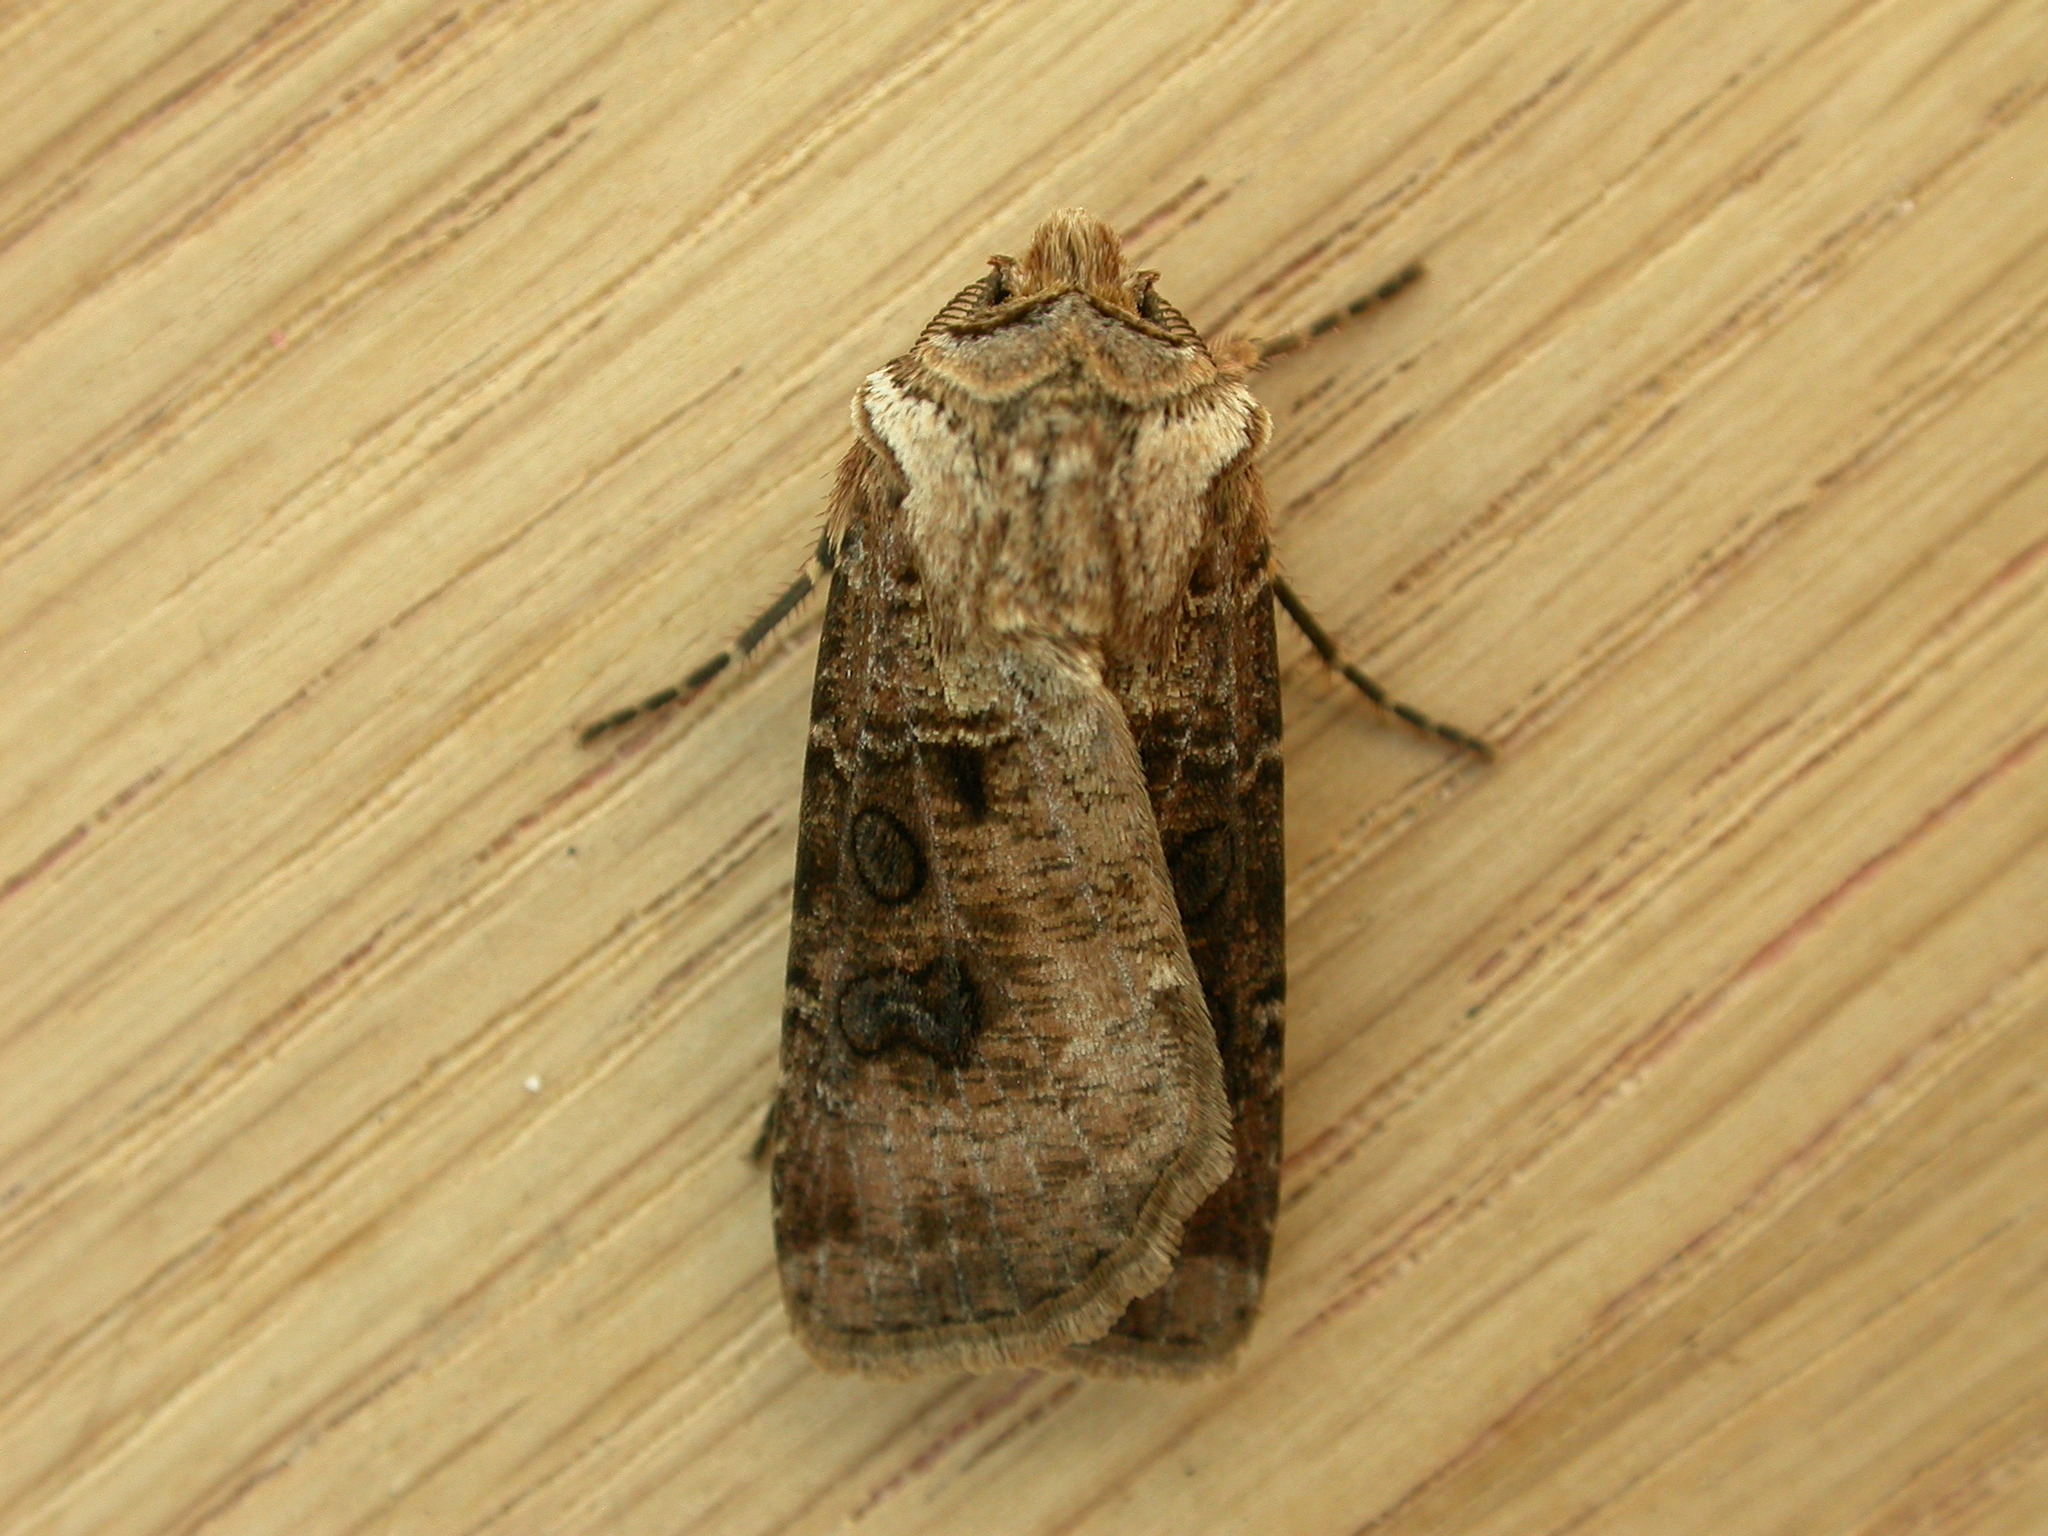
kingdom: Animalia
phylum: Arthropoda
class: Insecta
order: Lepidoptera
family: Noctuidae
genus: Agrotis
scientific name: Agrotis clavis
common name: Heart and club
